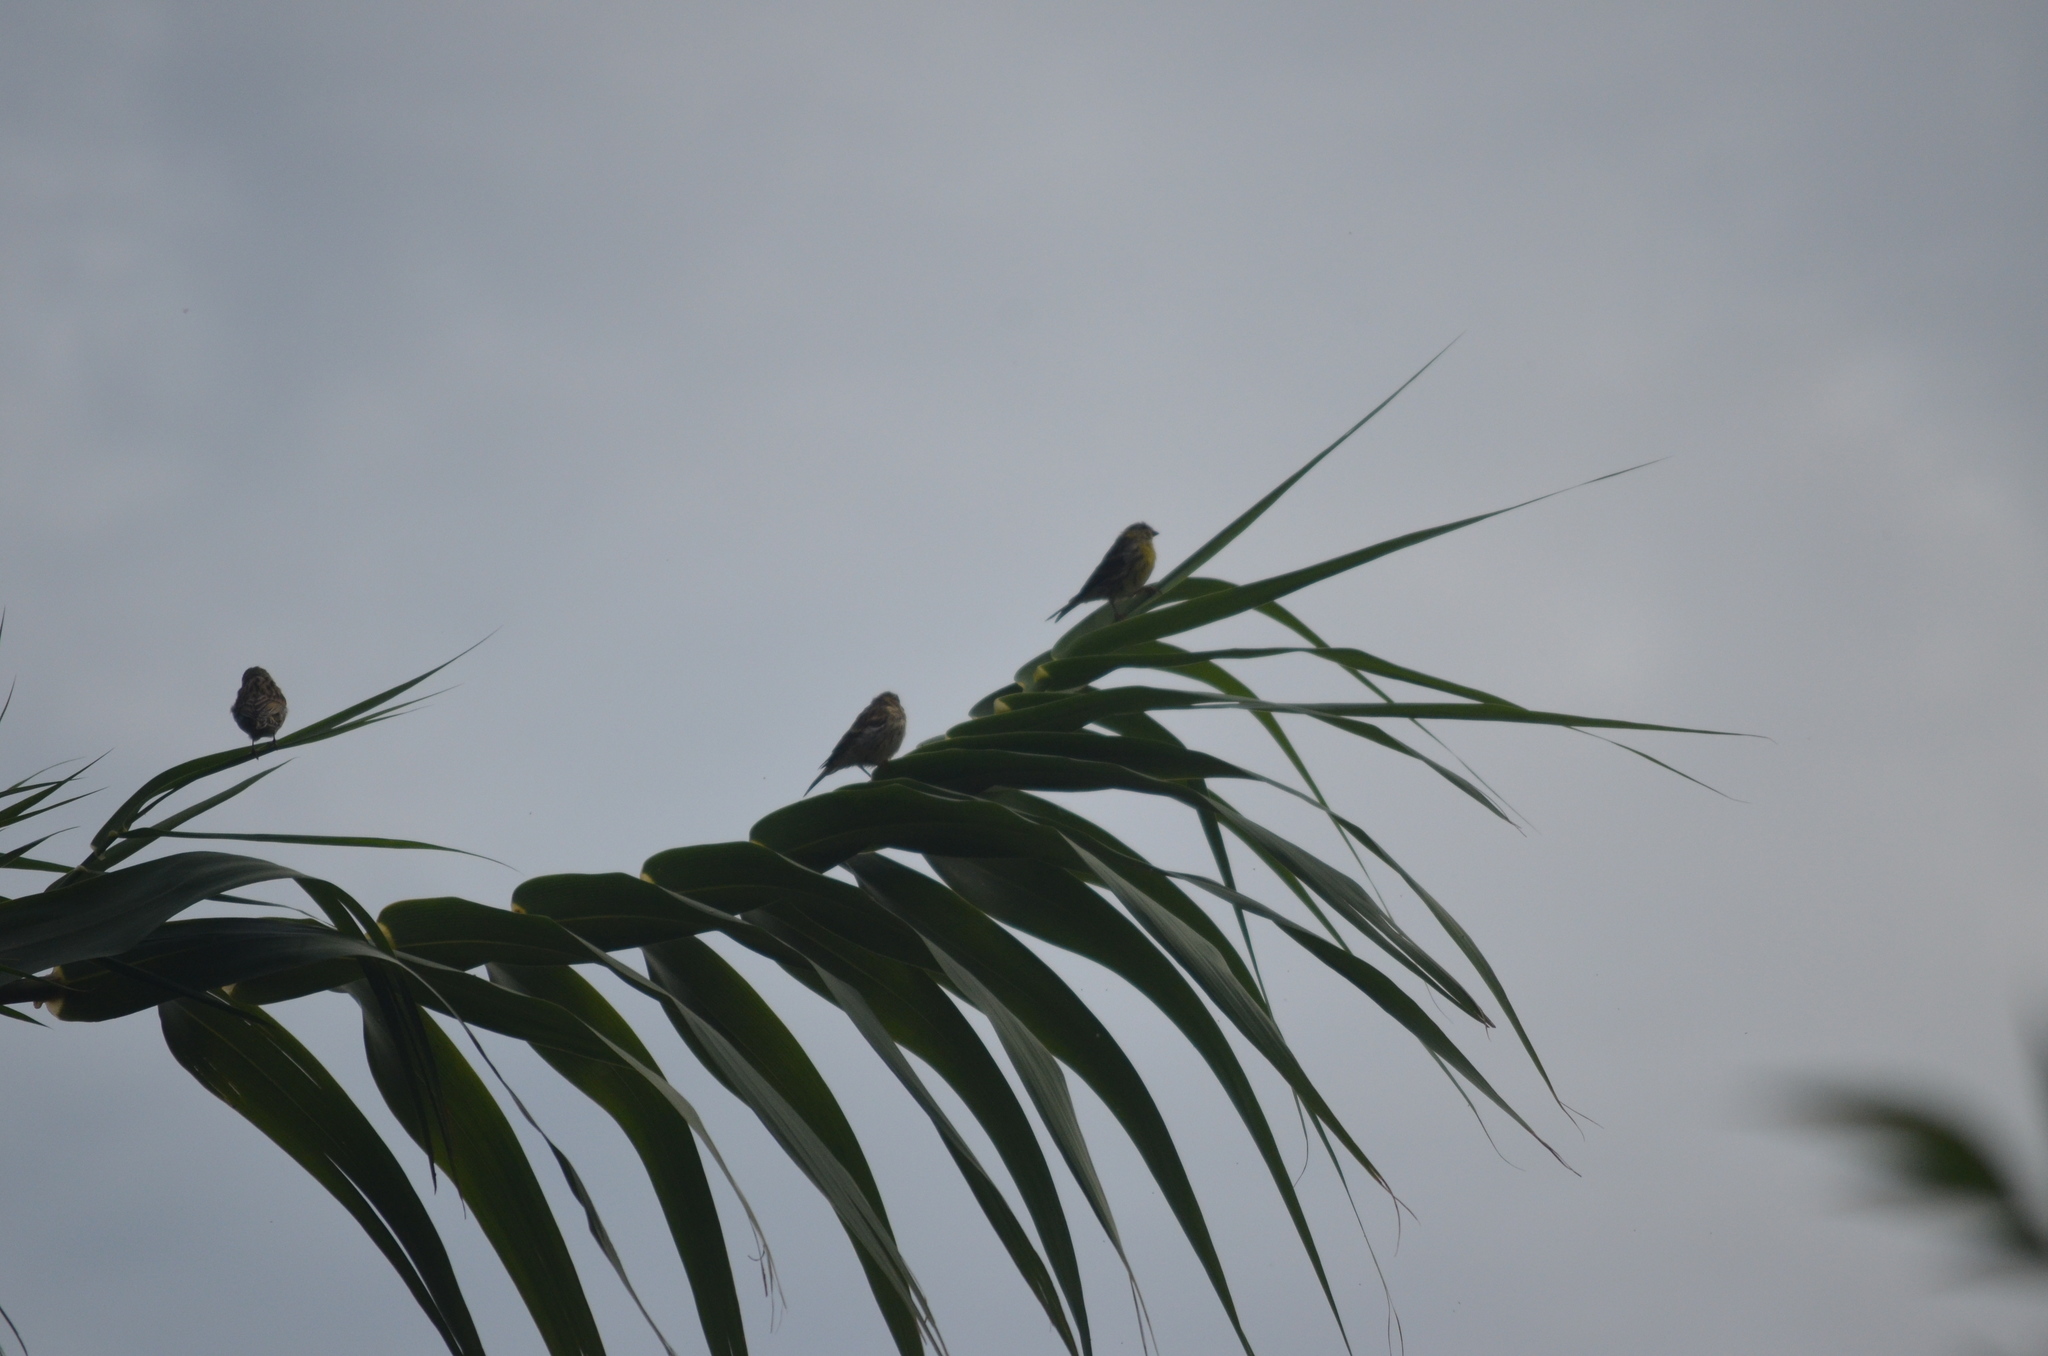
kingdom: Animalia
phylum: Chordata
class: Aves
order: Passeriformes
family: Fringillidae
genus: Serinus
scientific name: Serinus serinus
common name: European serin
